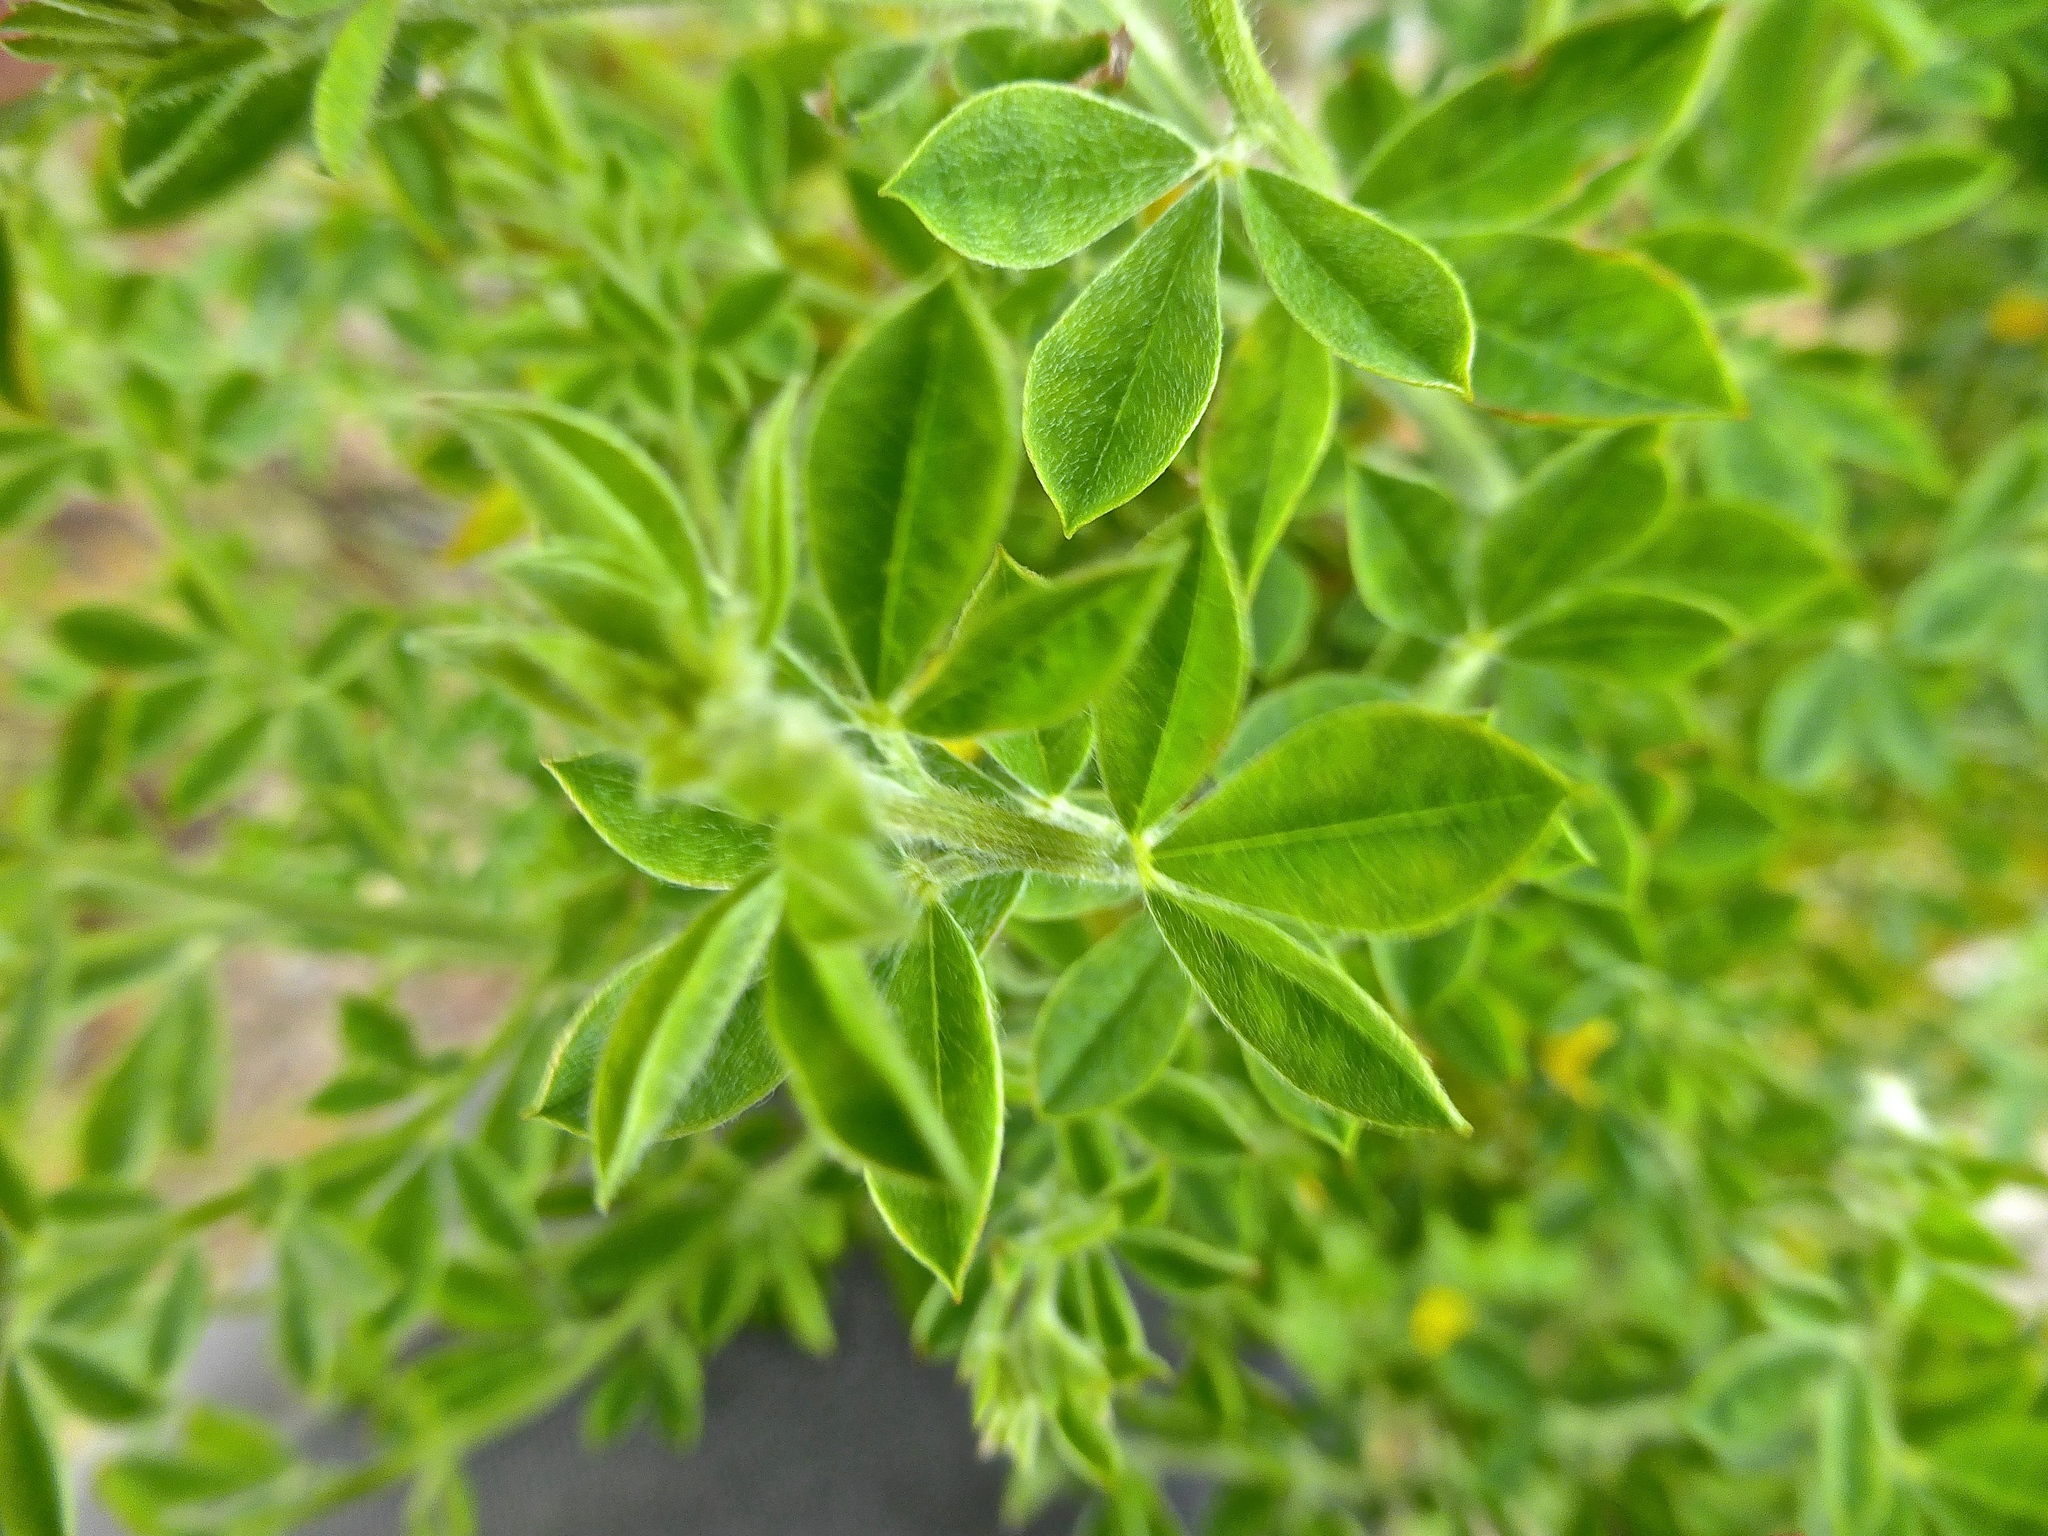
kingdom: Plantae
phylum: Tracheophyta
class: Magnoliopsida
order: Fabales
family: Fabaceae
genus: Genista
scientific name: Genista monspessulana
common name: Montpellier broom
